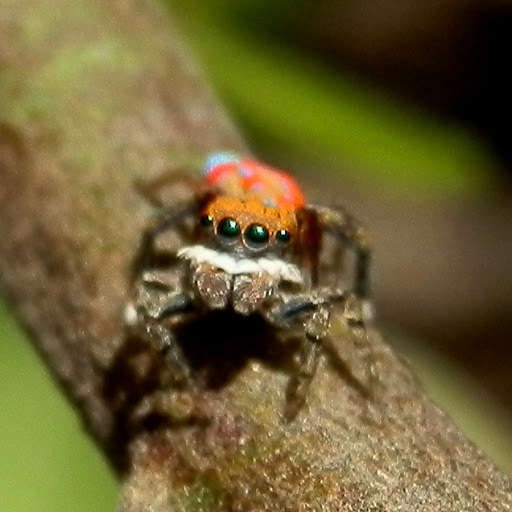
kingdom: Animalia
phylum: Arthropoda
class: Arachnida
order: Araneae
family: Salticidae
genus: Maratus
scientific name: Maratus pavonis
